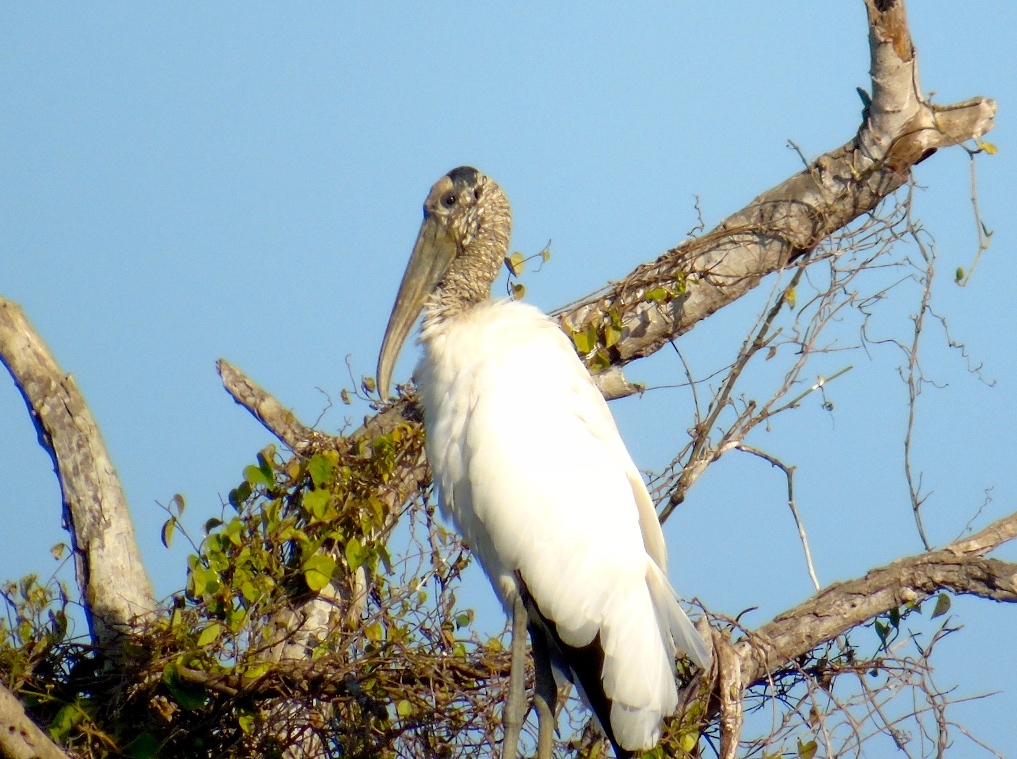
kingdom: Animalia
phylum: Chordata
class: Aves
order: Ciconiiformes
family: Ciconiidae
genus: Mycteria
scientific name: Mycteria americana
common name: Wood stork
